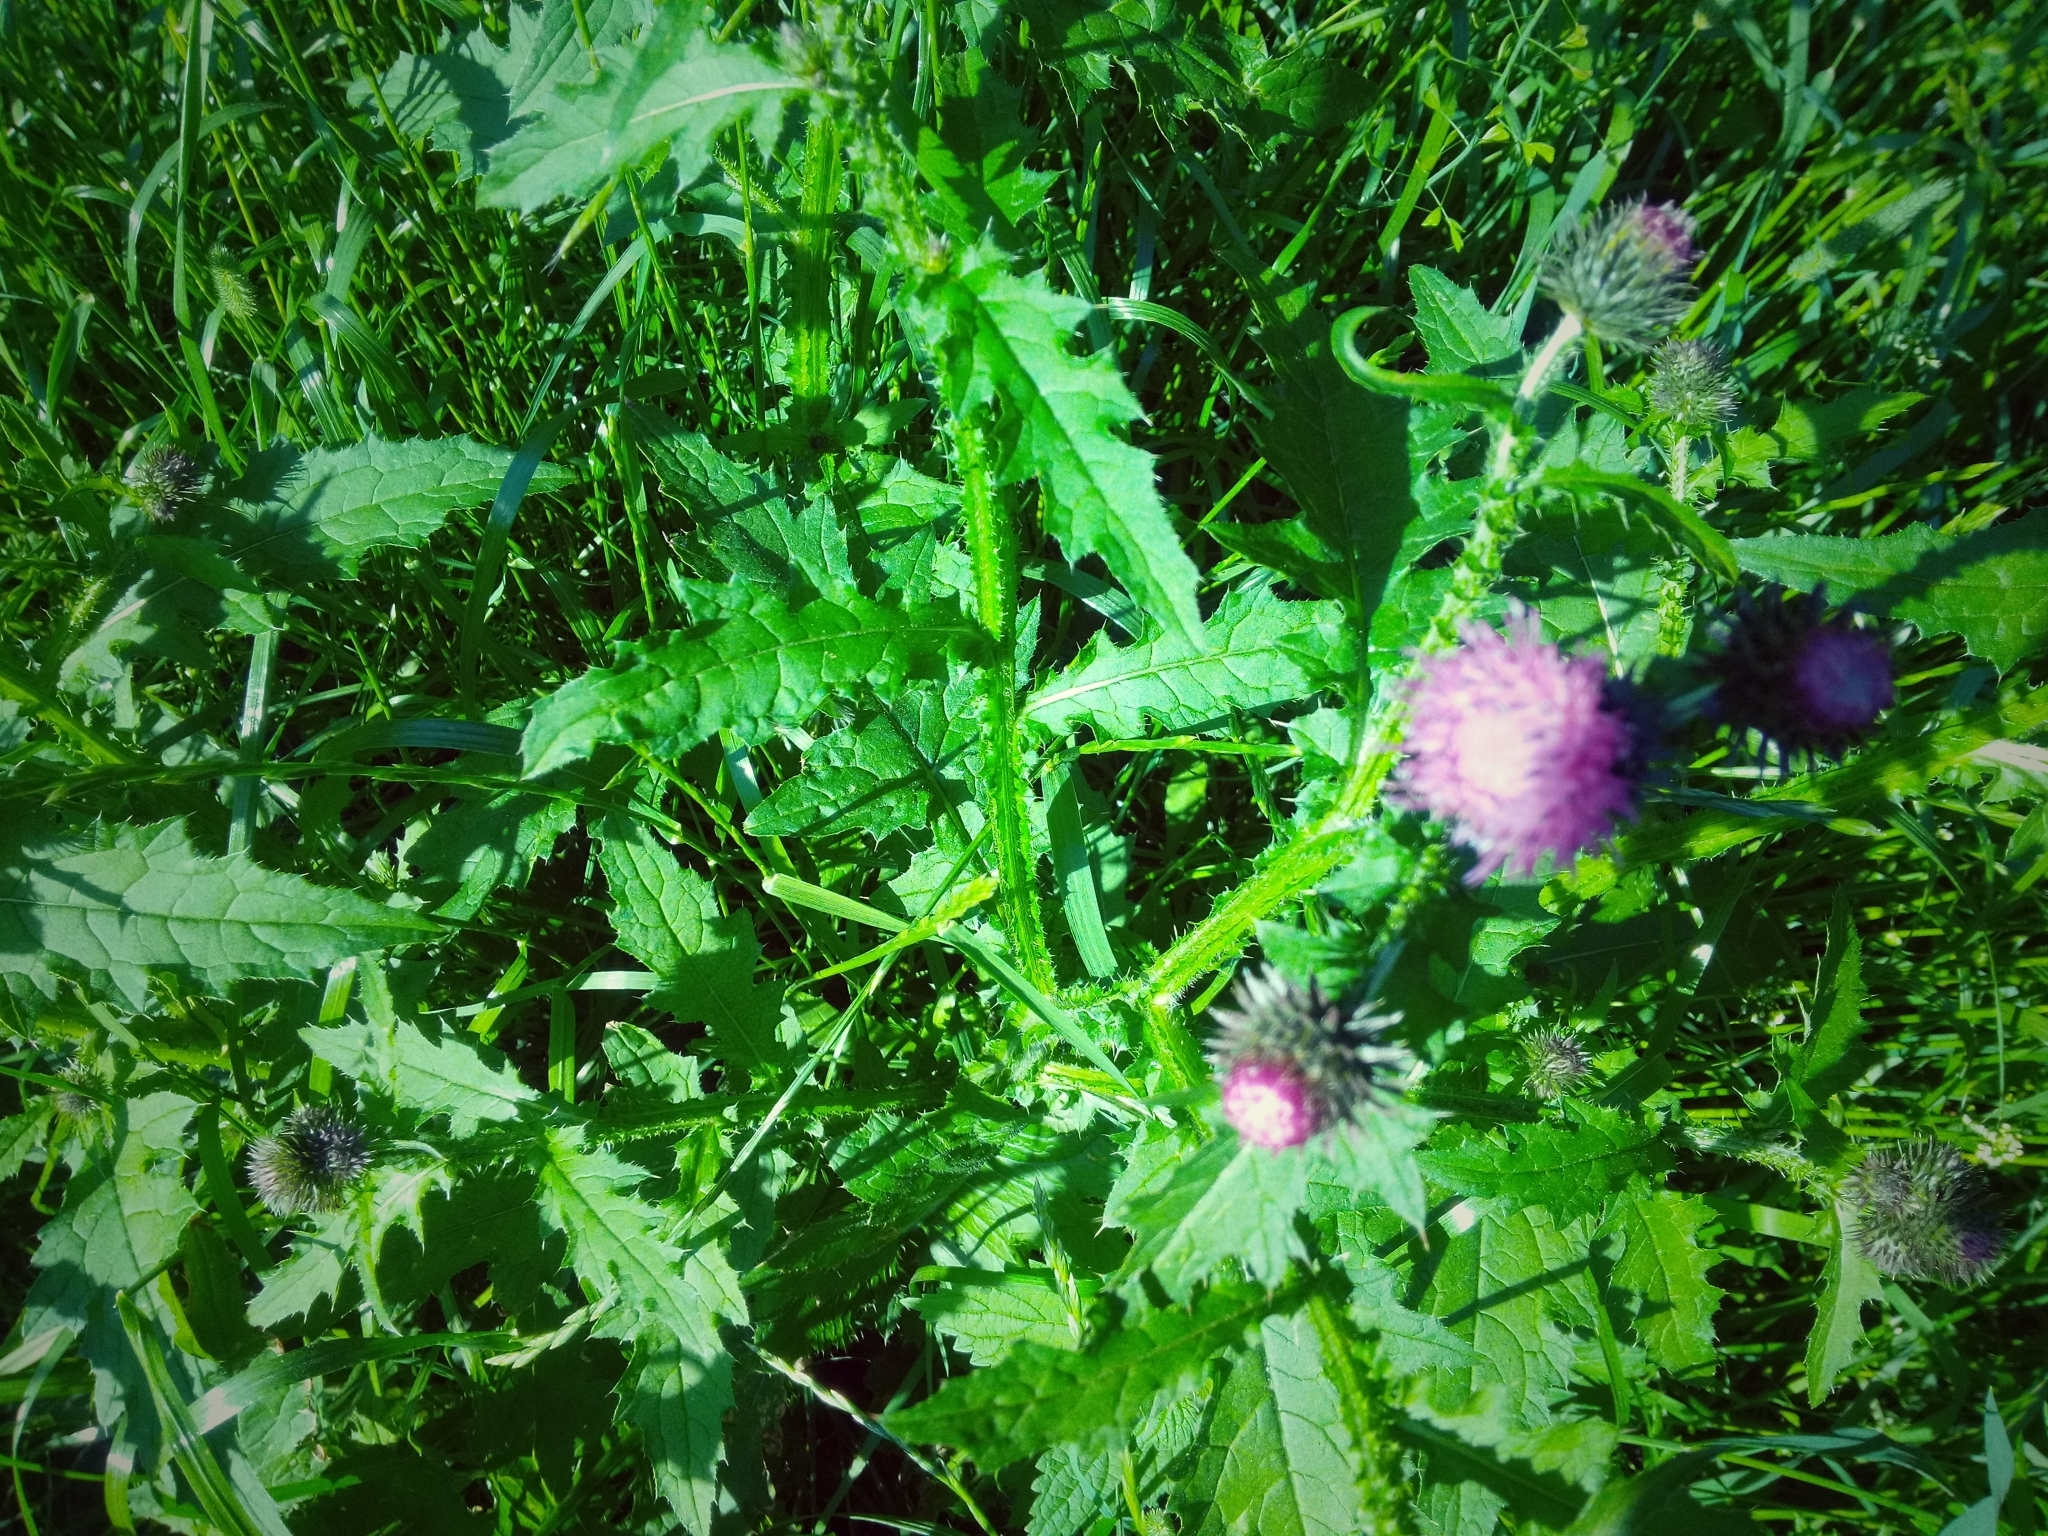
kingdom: Plantae
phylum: Tracheophyta
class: Magnoliopsida
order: Asterales
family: Asteraceae
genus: Carduus
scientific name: Carduus crispus
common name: Welted thistle
